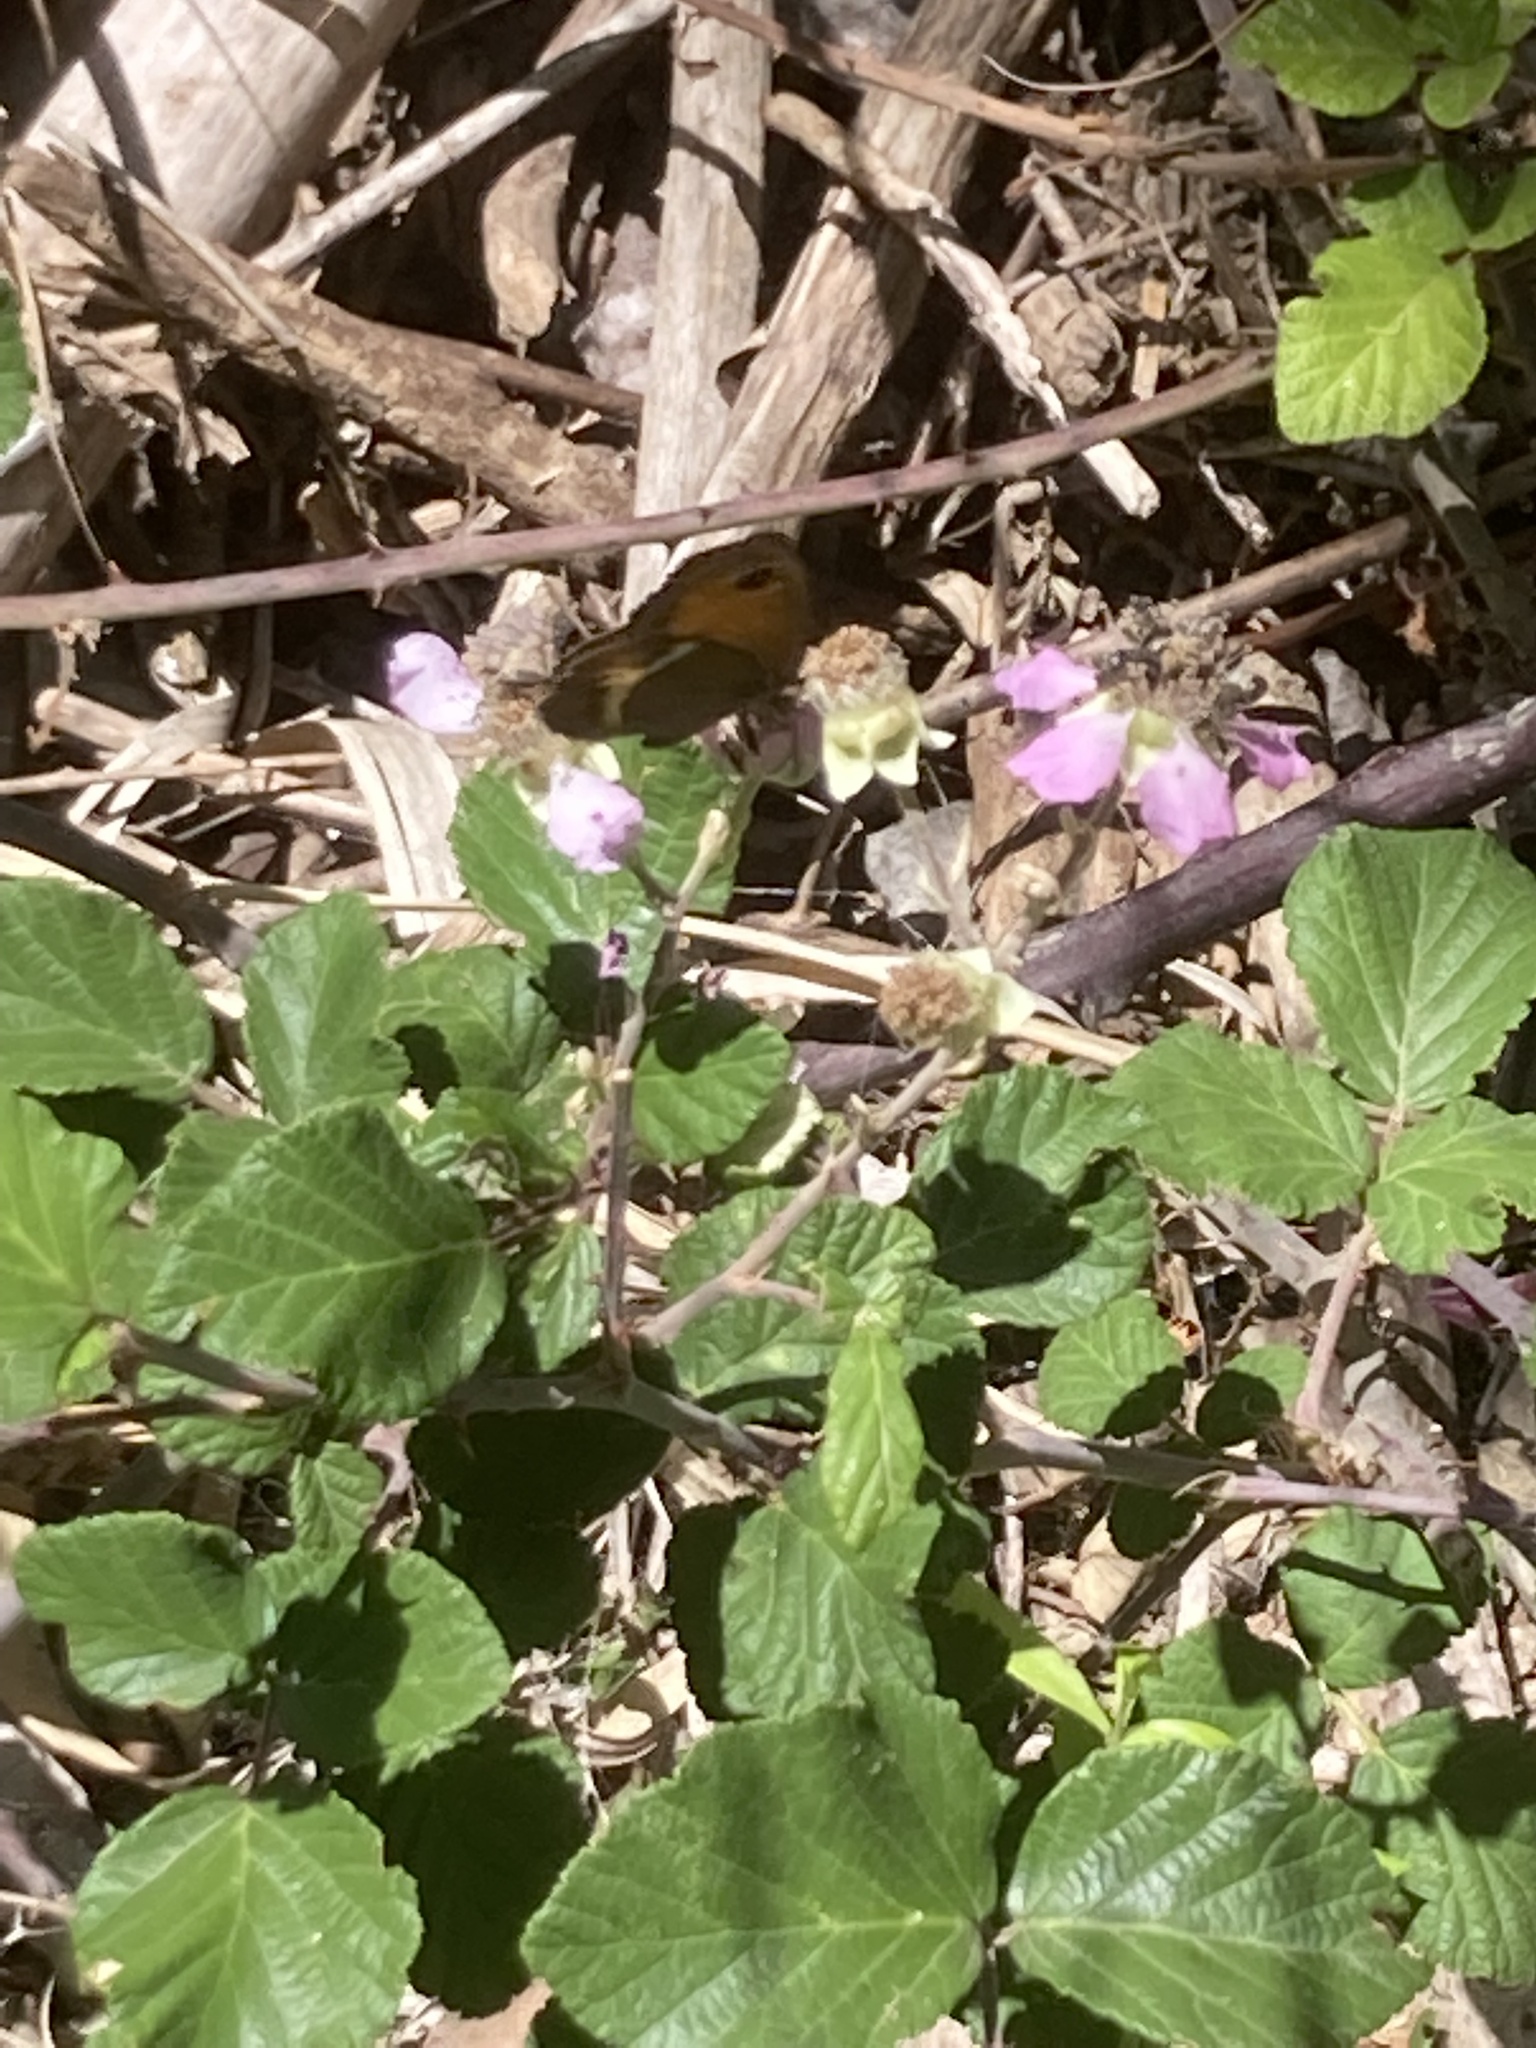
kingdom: Animalia
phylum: Arthropoda
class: Insecta
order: Lepidoptera
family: Nymphalidae
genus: Pyronia
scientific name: Pyronia bathseba
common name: Spanish gatekeeper
